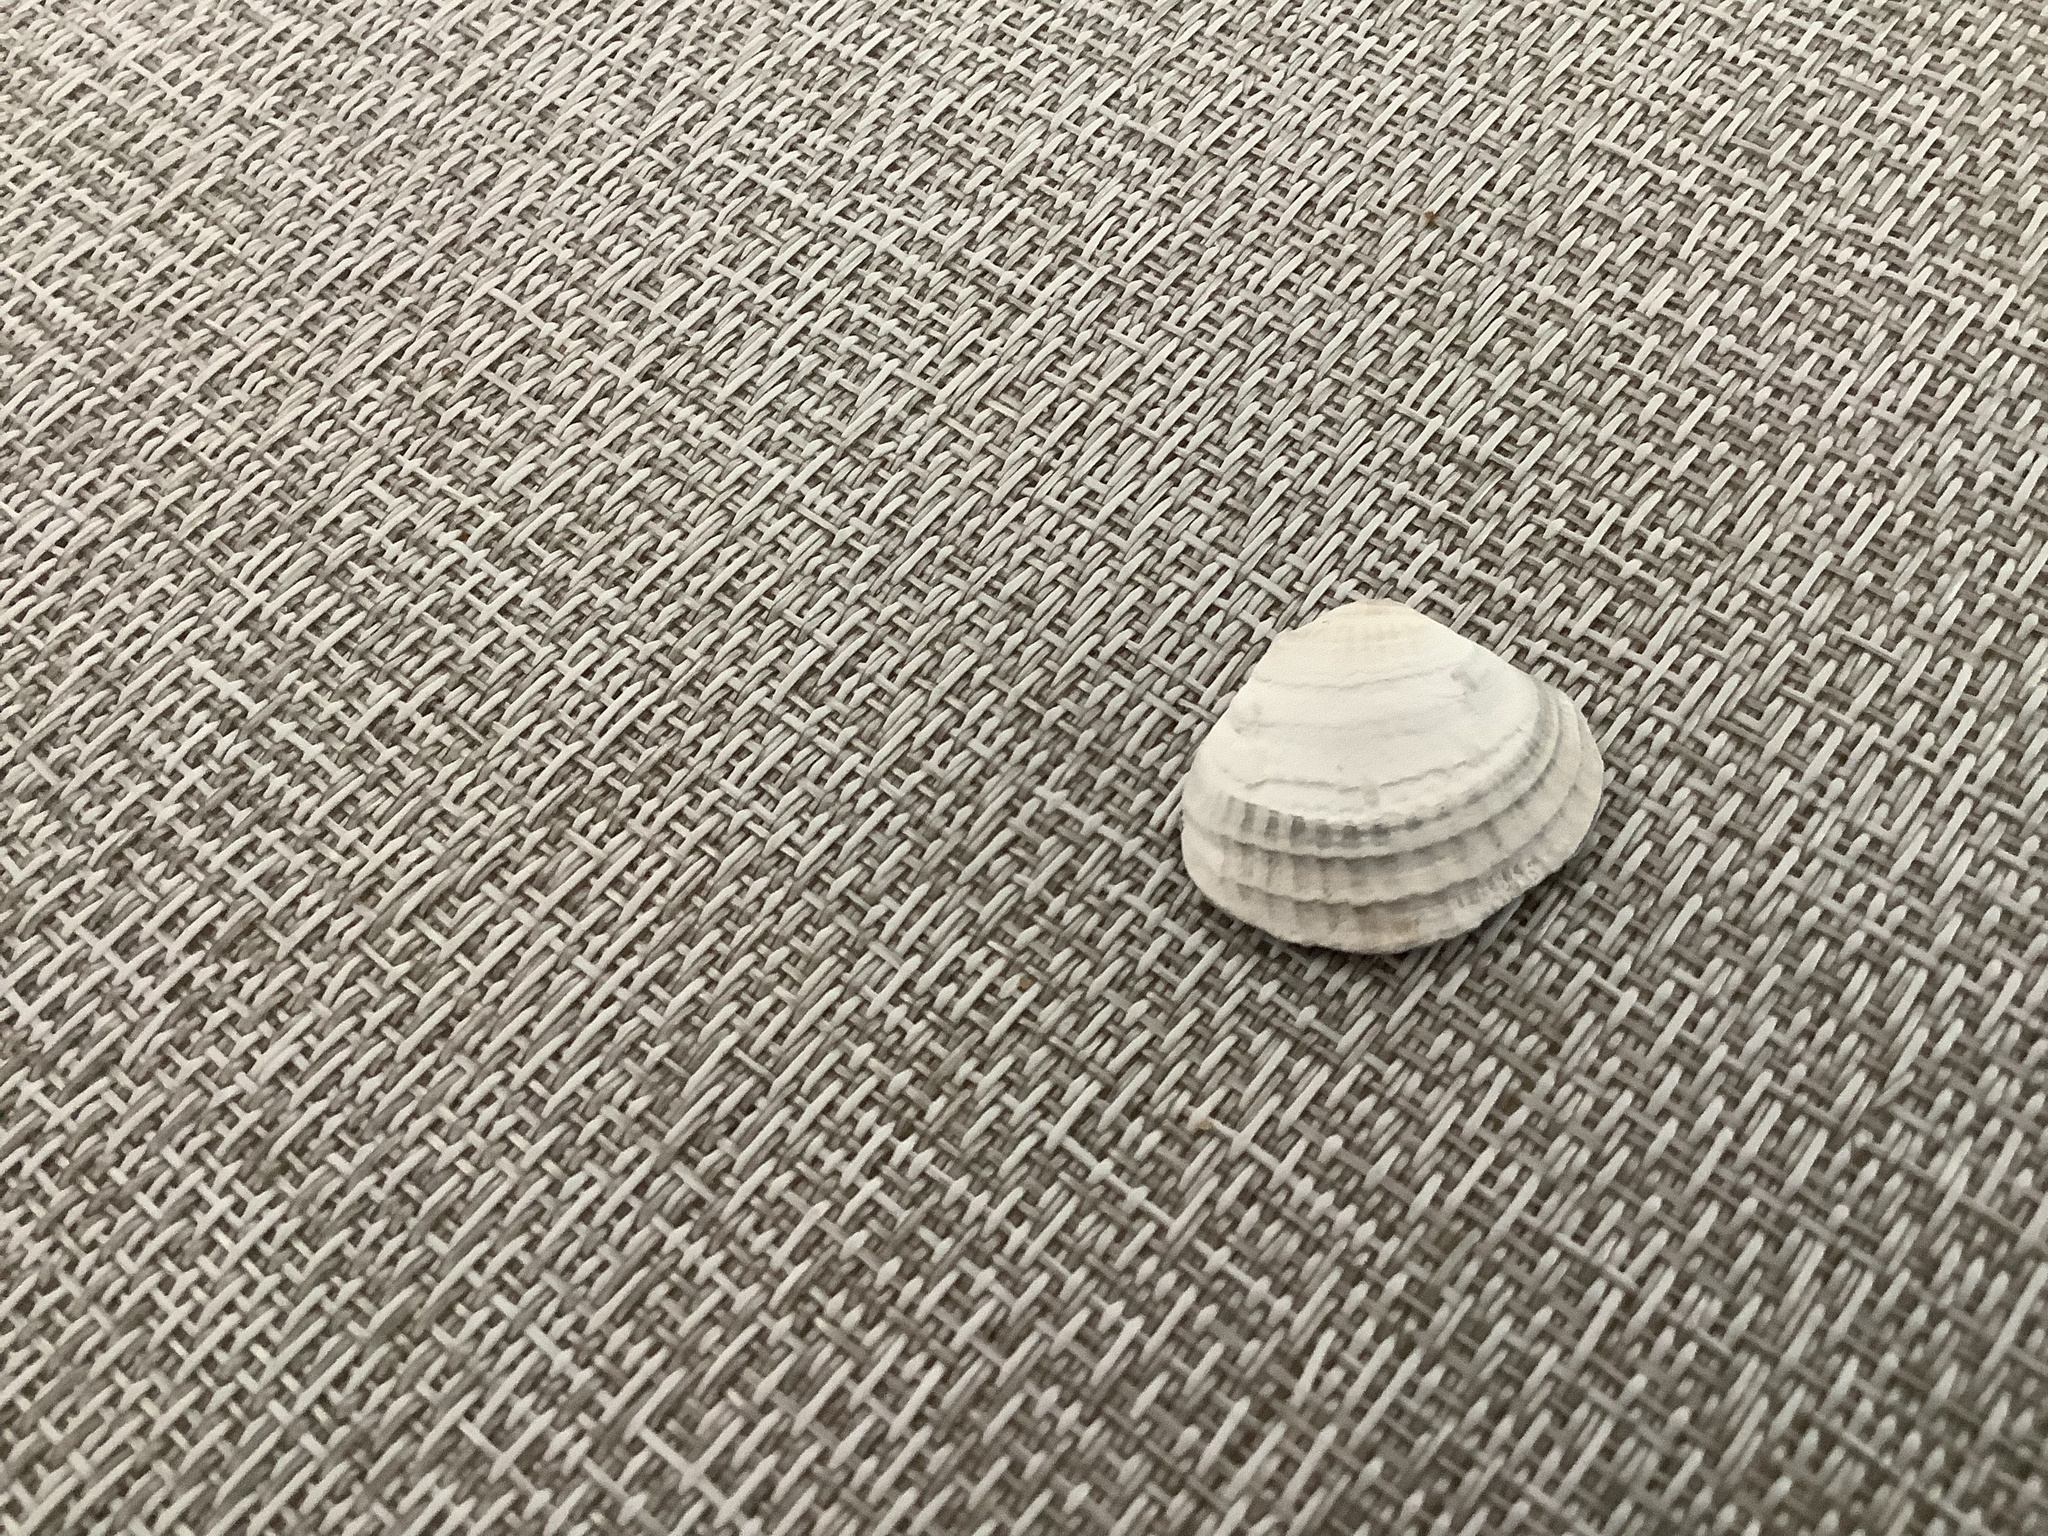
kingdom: Animalia
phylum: Mollusca
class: Bivalvia
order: Venerida
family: Veneridae
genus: Chione
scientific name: Chione elevata
